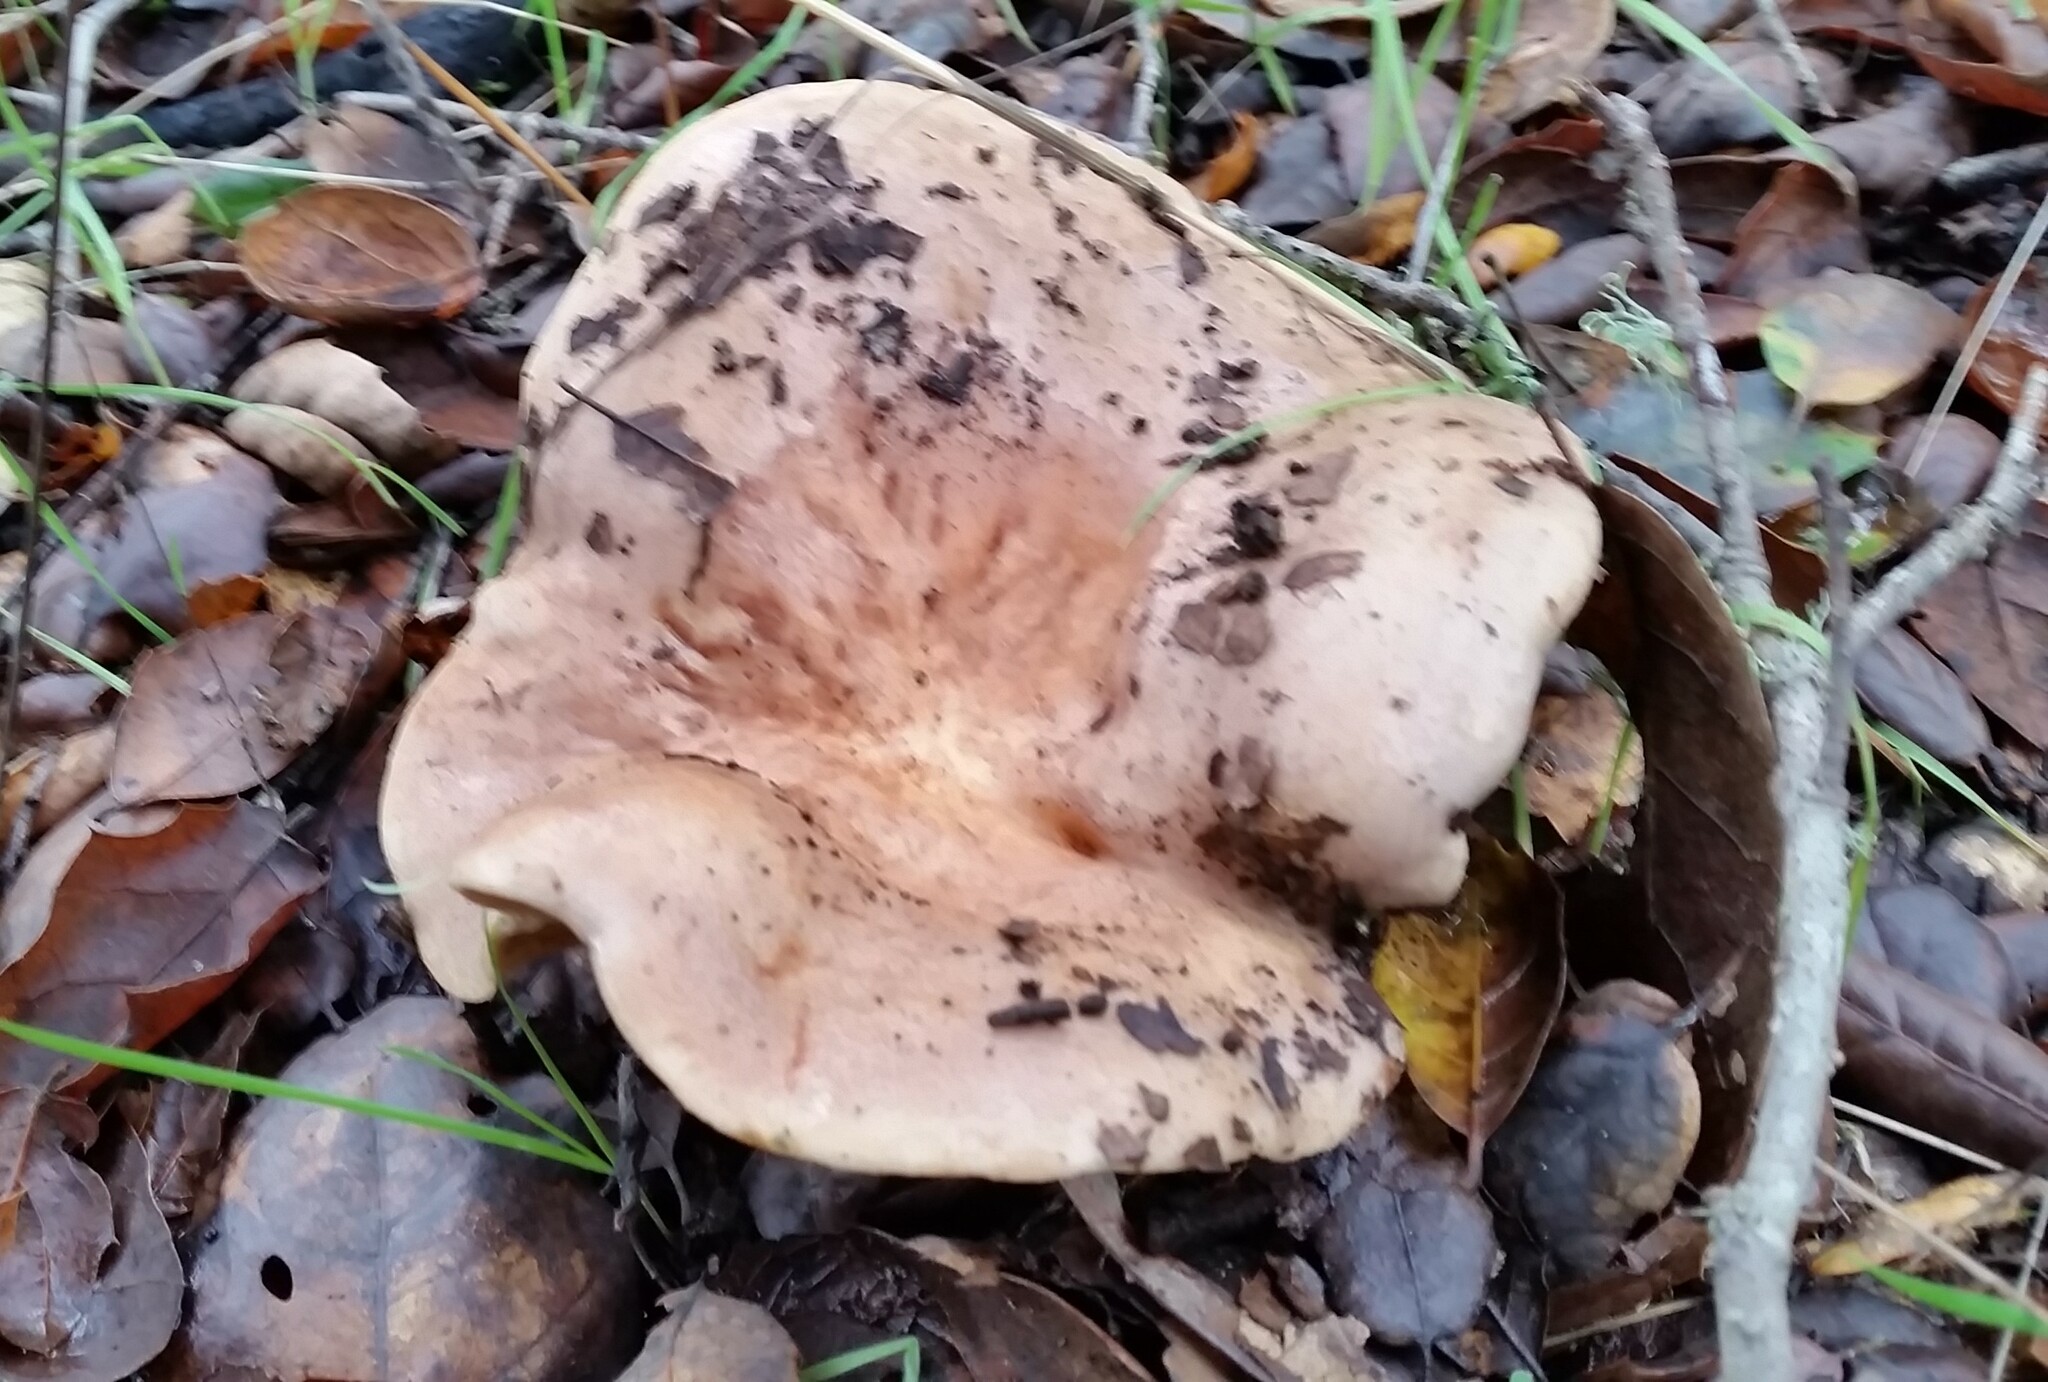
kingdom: Fungi
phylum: Basidiomycota
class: Agaricomycetes
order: Russulales
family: Russulaceae
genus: Lactarius
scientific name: Lactarius argillaceifolius
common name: Clay-gilled milkcap
